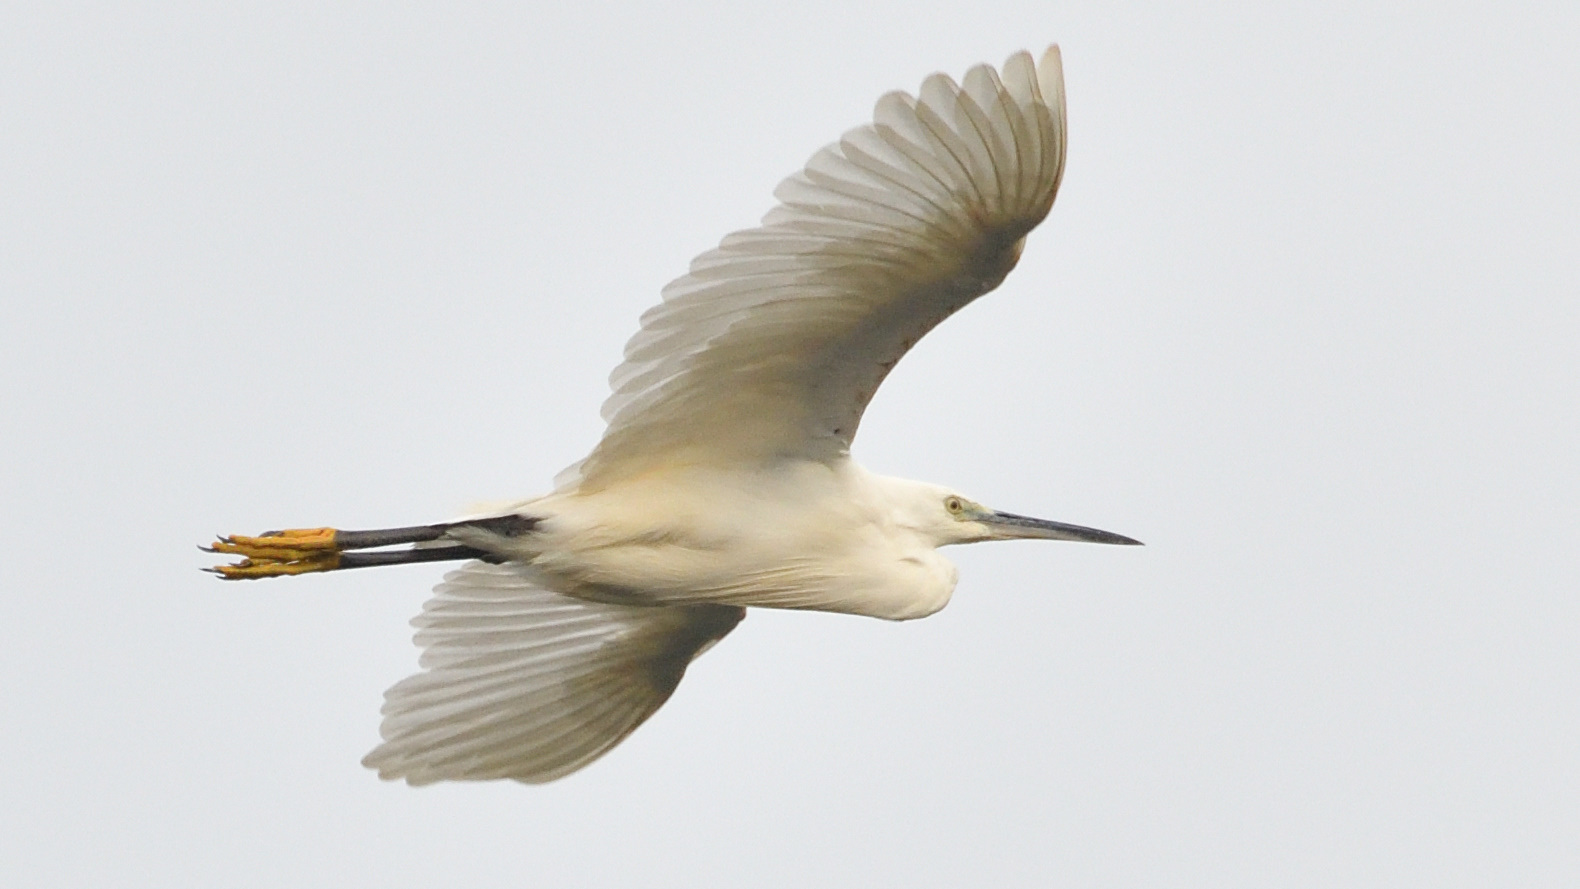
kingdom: Animalia
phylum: Chordata
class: Aves
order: Pelecaniformes
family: Ardeidae
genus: Egretta
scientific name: Egretta garzetta
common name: Little egret
